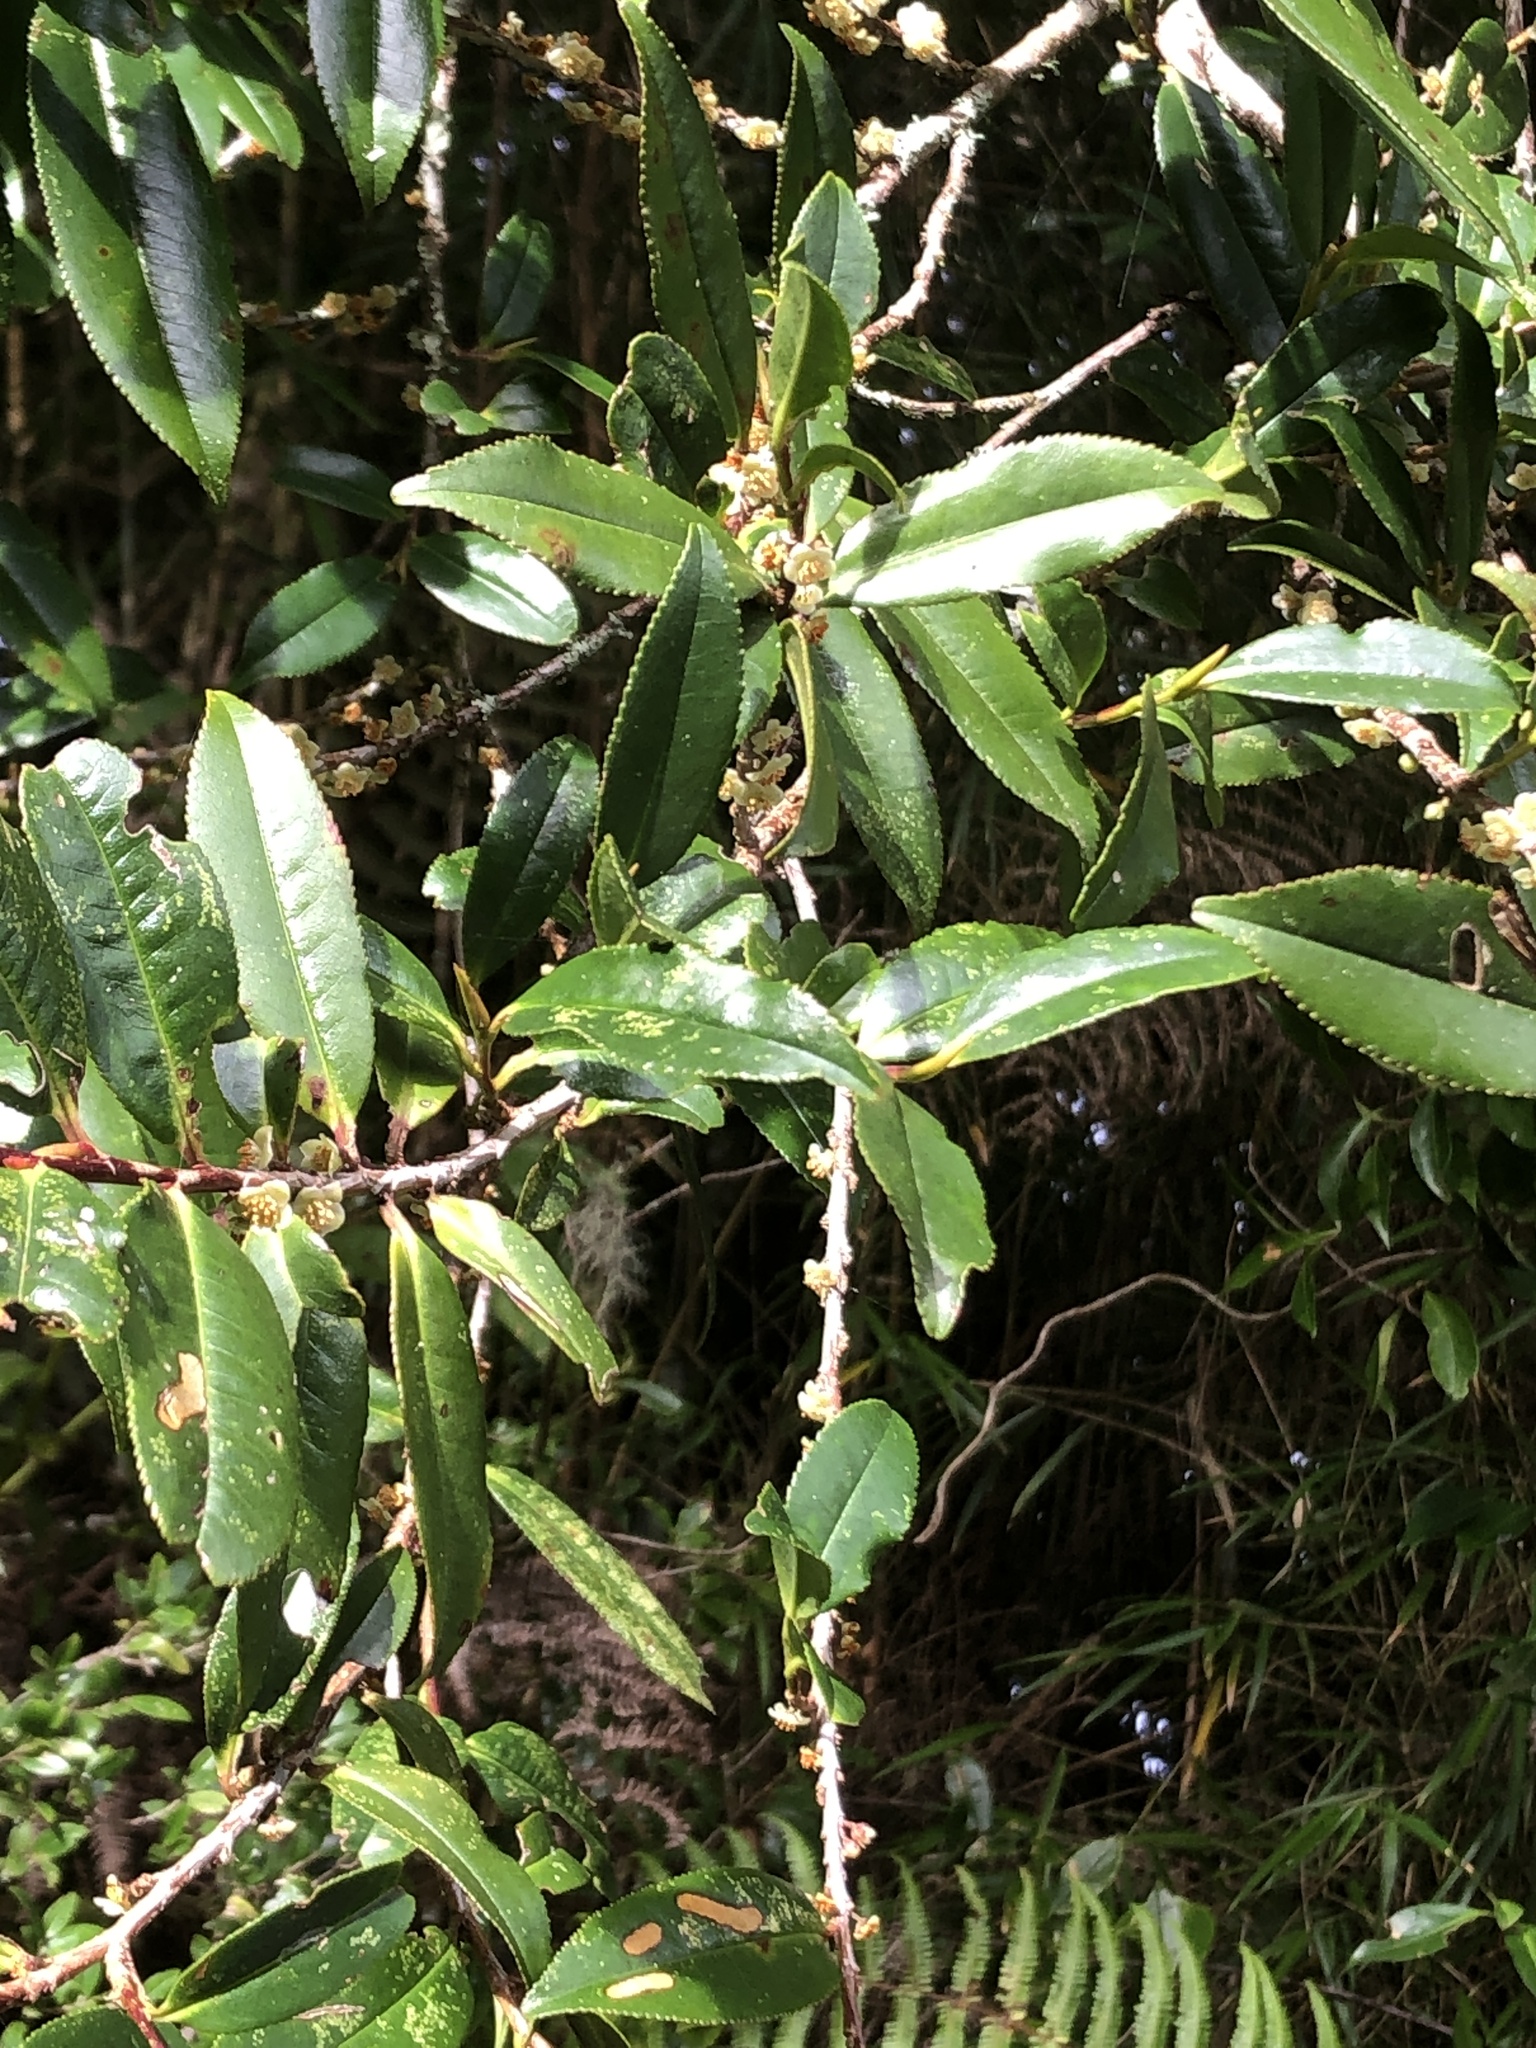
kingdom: Plantae
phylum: Tracheophyta
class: Magnoliopsida
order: Ericales
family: Pentaphylacaceae
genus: Eurya
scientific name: Eurya glaberrima
